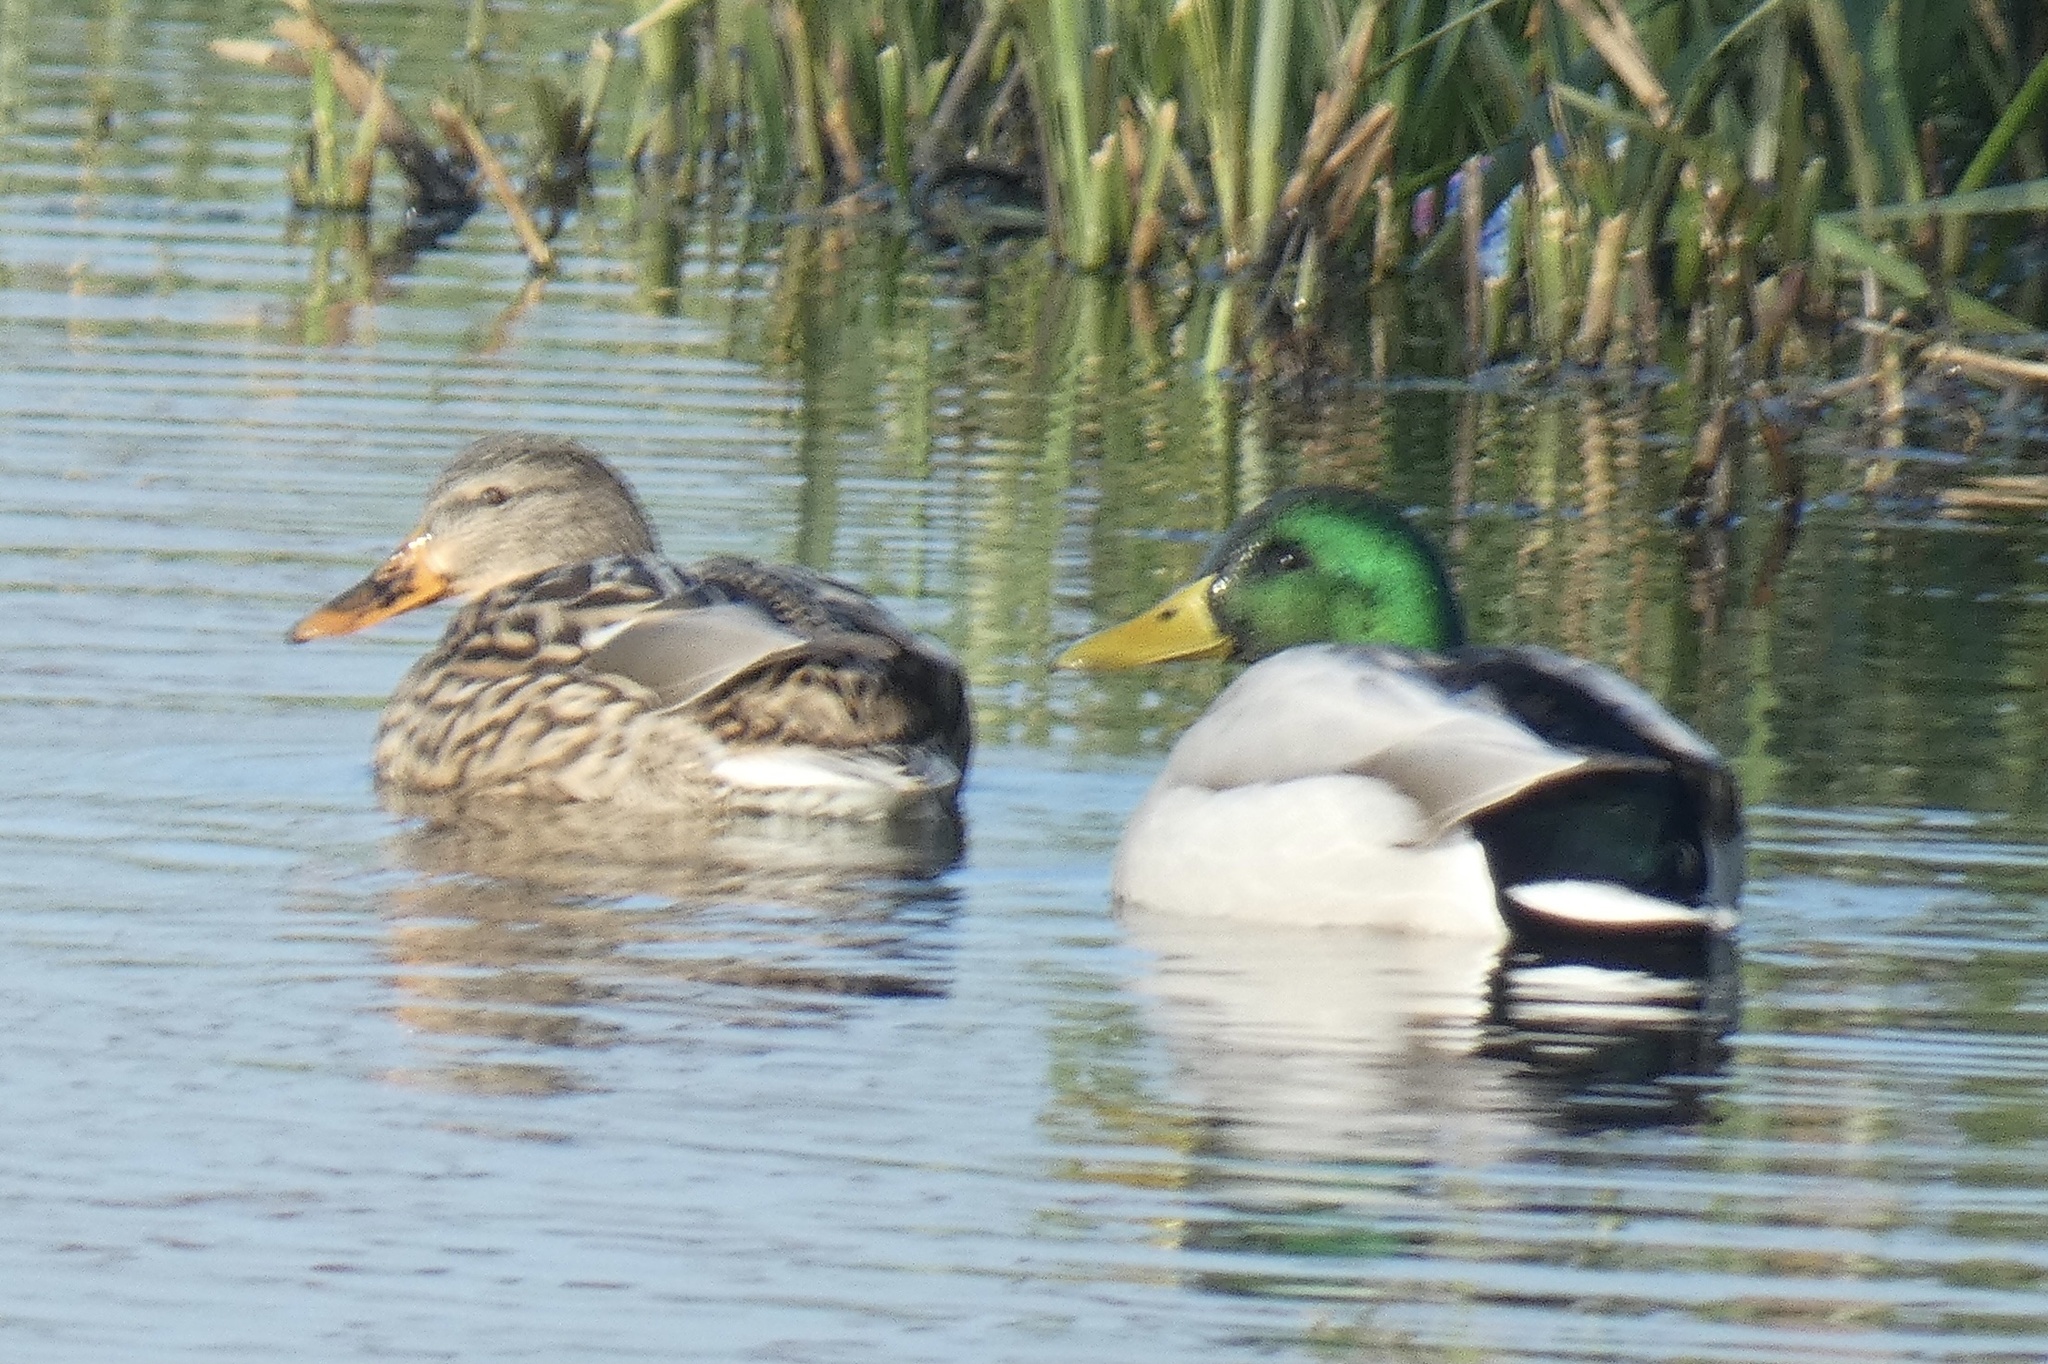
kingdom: Animalia
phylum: Chordata
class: Aves
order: Anseriformes
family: Anatidae
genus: Anas
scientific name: Anas platyrhynchos
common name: Mallard
